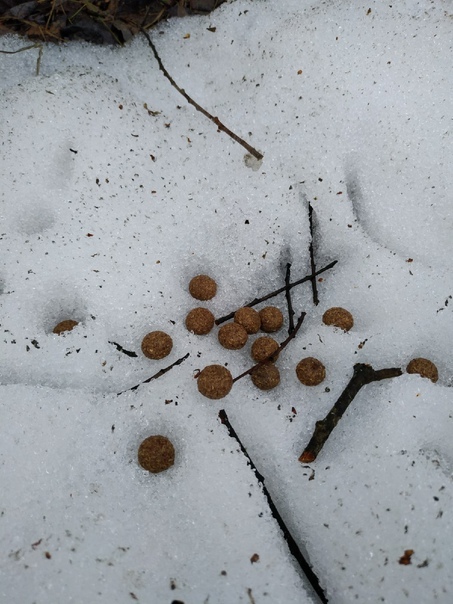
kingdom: Animalia
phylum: Chordata
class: Mammalia
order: Lagomorpha
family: Leporidae
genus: Lepus
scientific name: Lepus timidus
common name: Mountain hare
